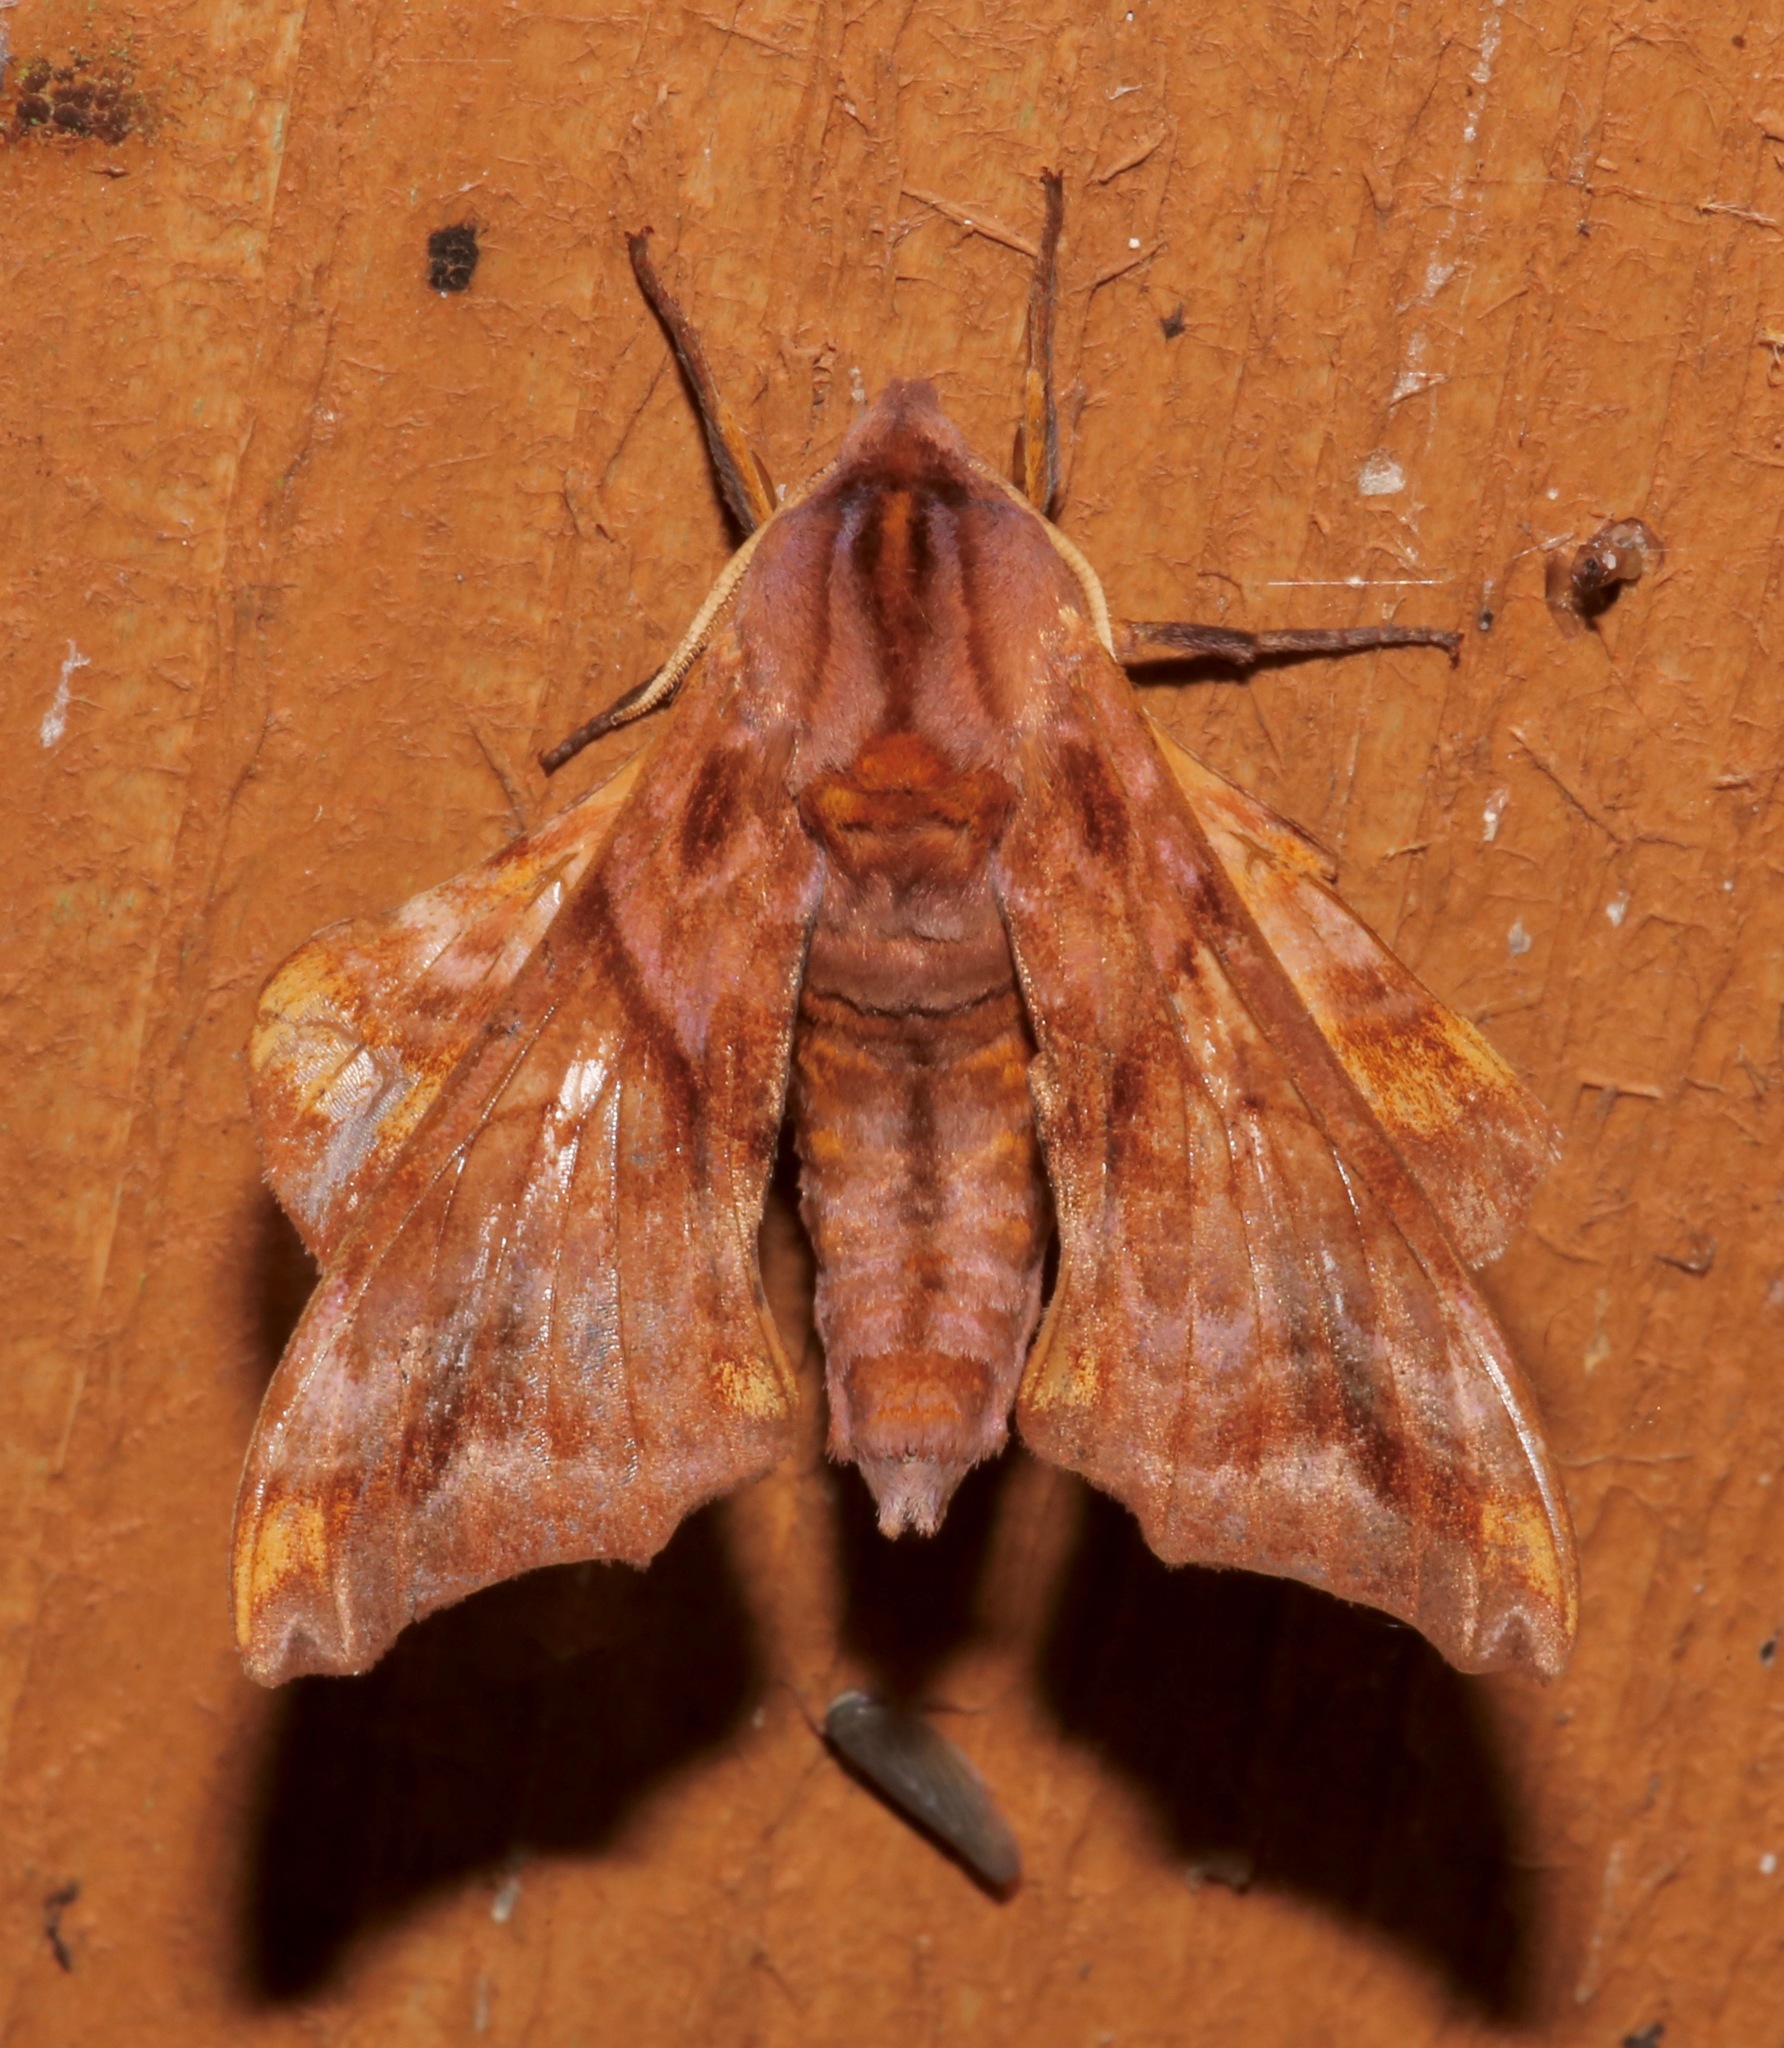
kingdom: Animalia
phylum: Arthropoda
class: Insecta
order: Lepidoptera
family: Sphingidae
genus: Paonias
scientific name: Paonias myops
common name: Small-eyed sphinx
